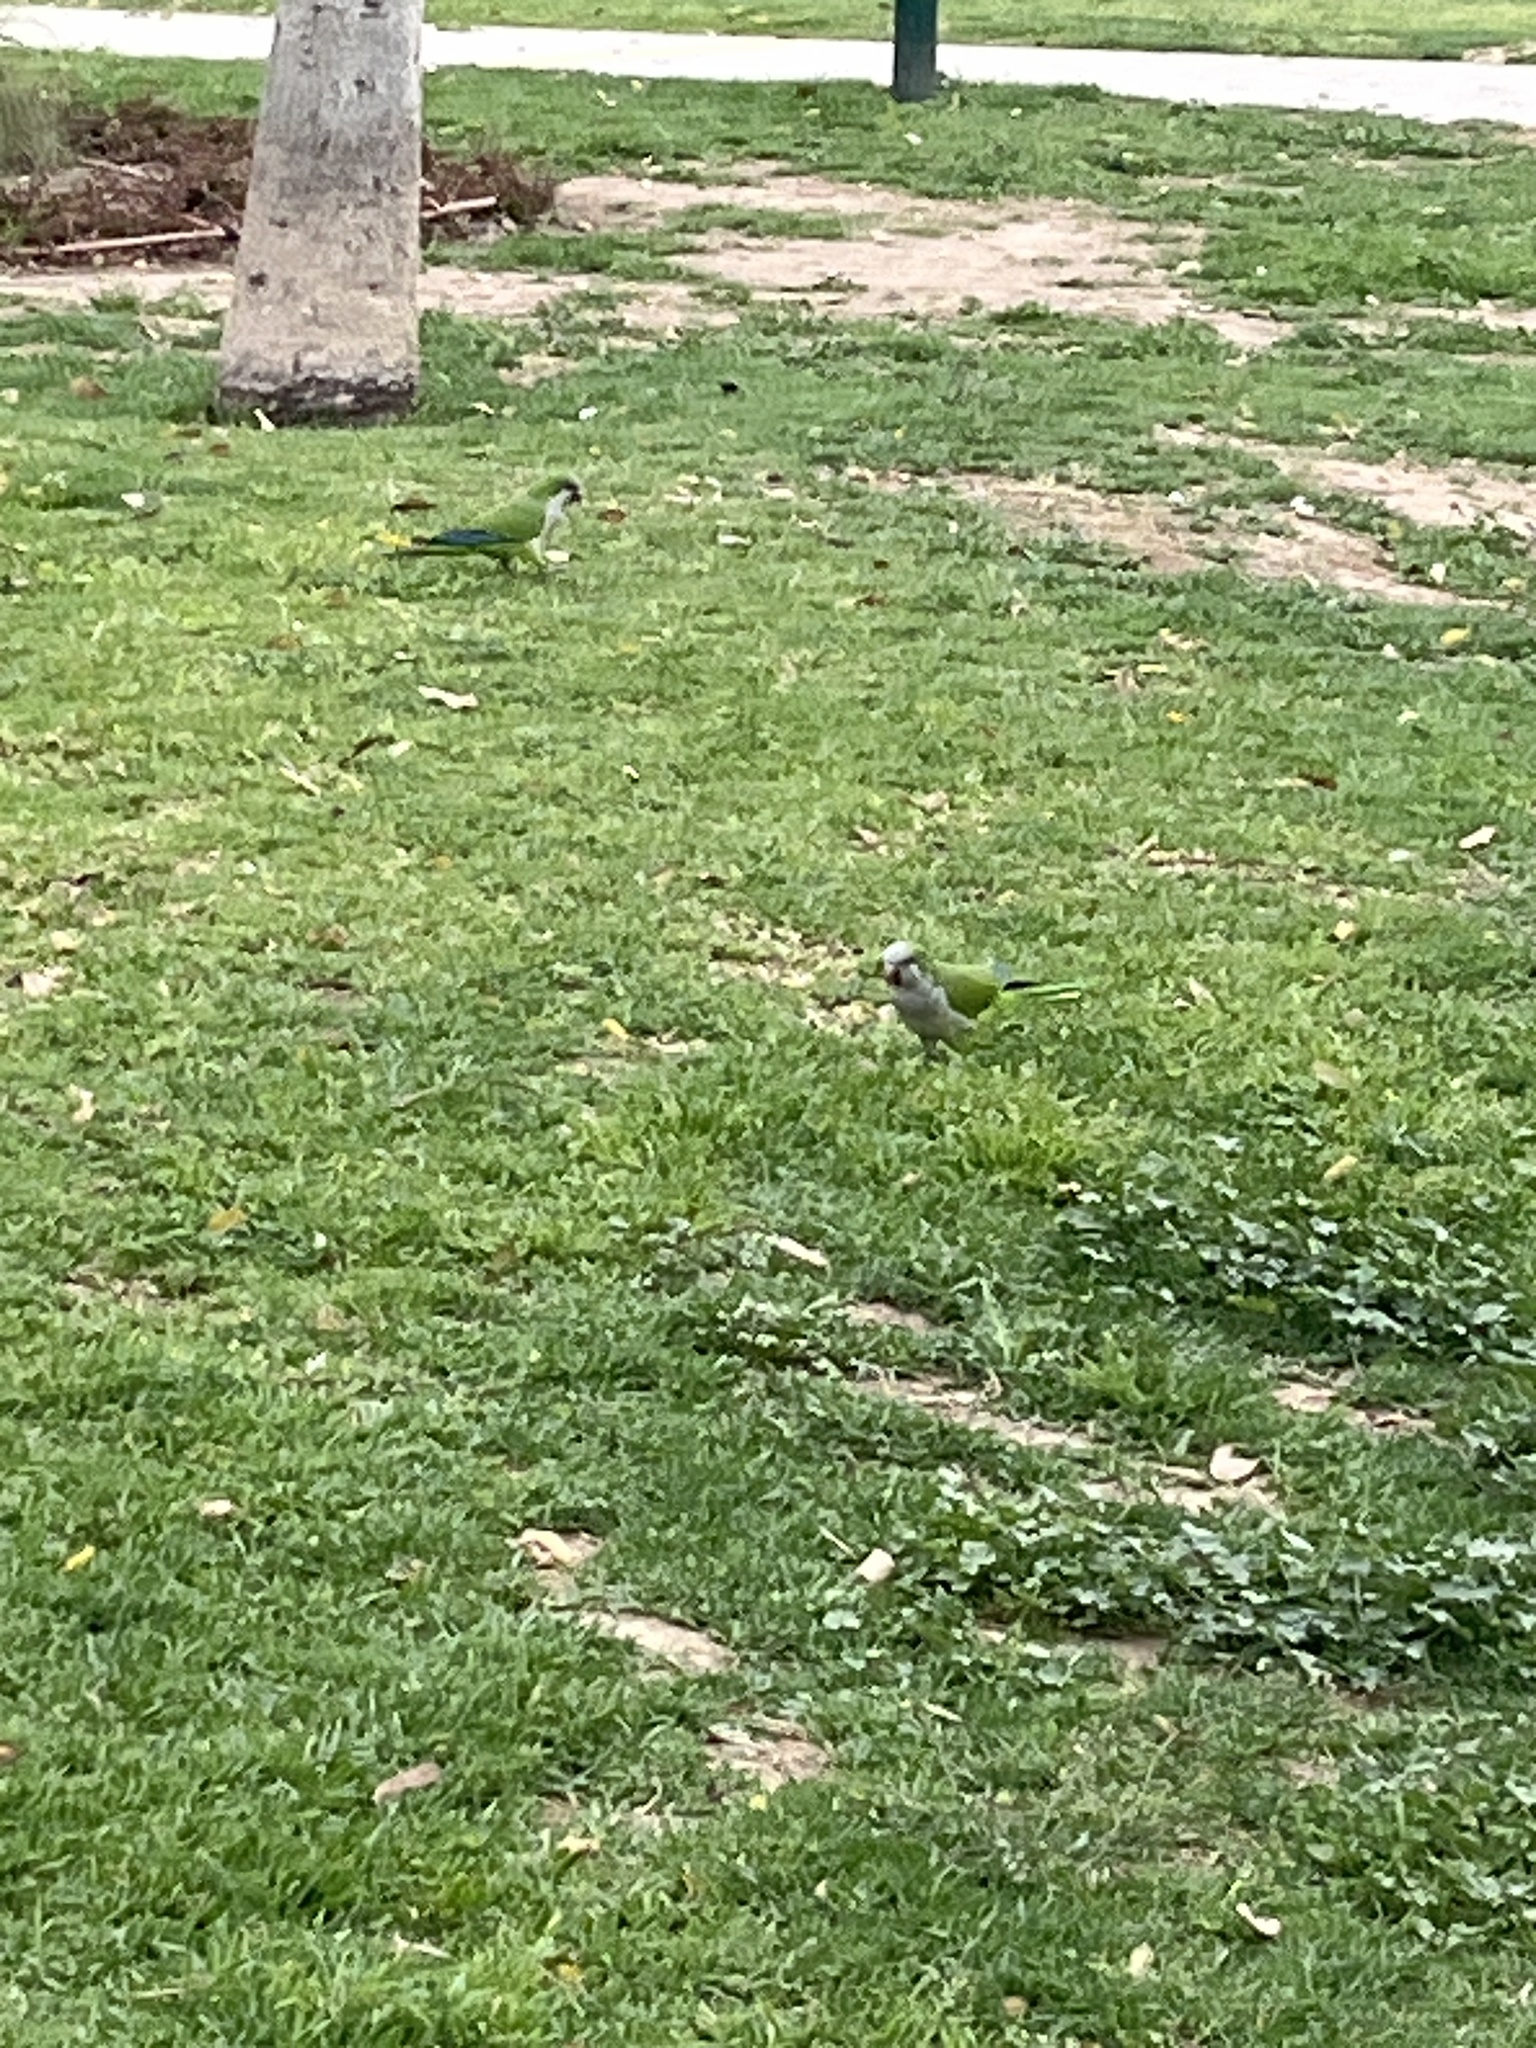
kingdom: Animalia
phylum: Chordata
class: Aves
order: Psittaciformes
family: Psittacidae
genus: Myiopsitta
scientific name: Myiopsitta monachus
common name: Monk parakeet
